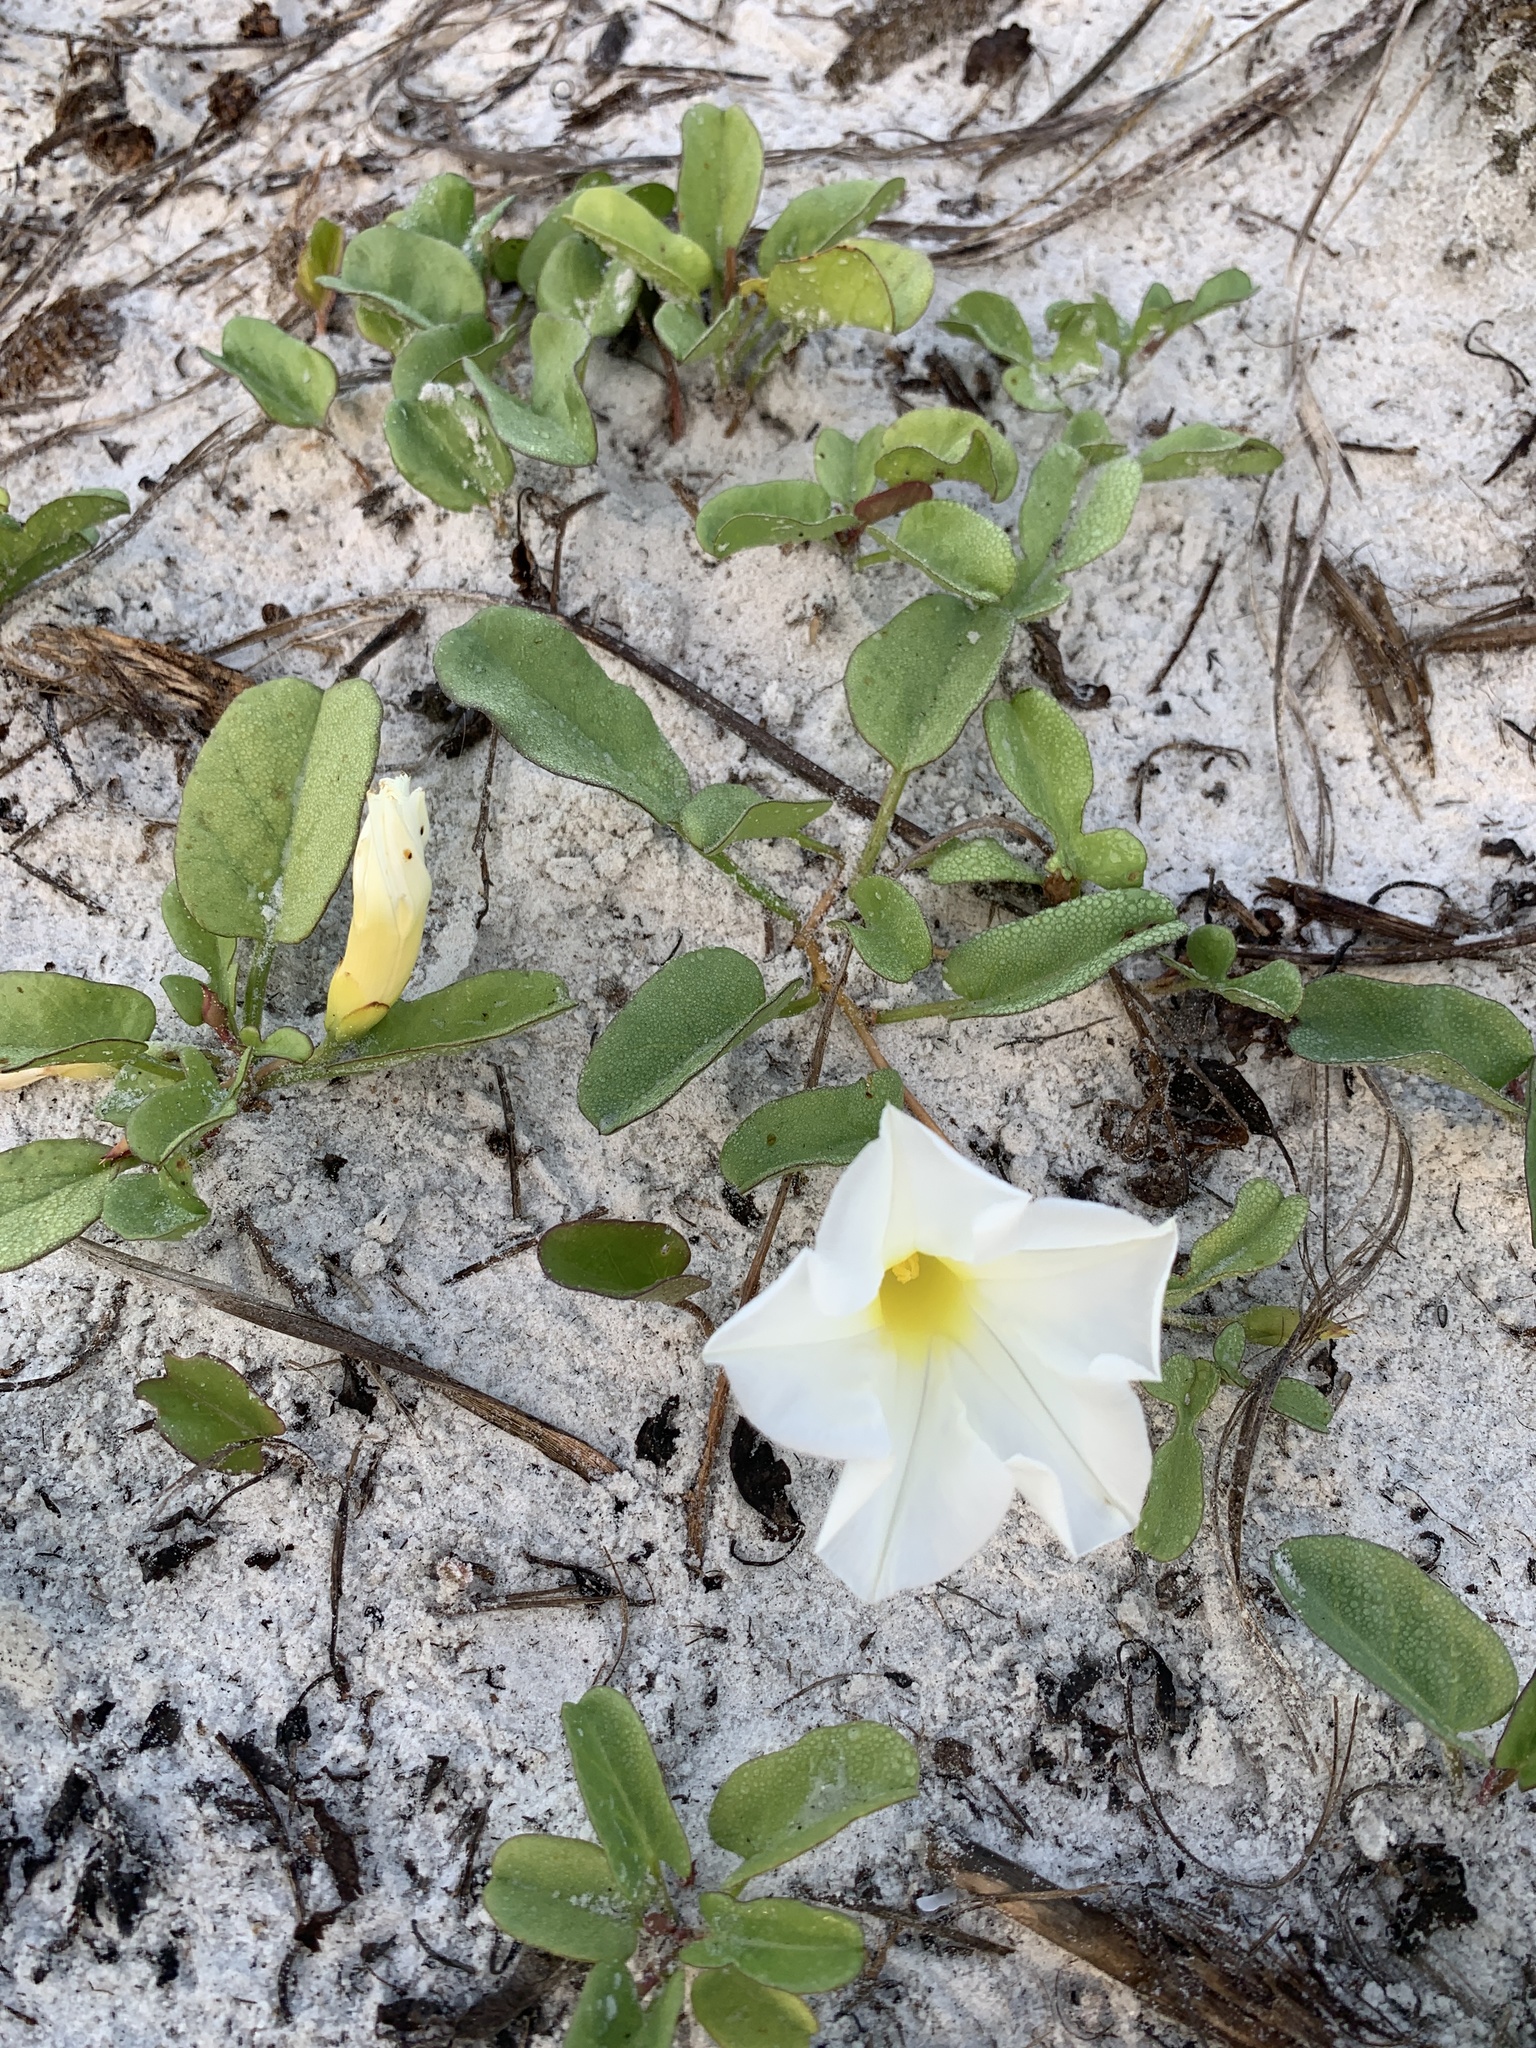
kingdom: Plantae
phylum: Tracheophyta
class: Magnoliopsida
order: Solanales
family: Convolvulaceae
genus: Ipomoea
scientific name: Ipomoea imperati
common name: Fiddle-leaf morning-glory
